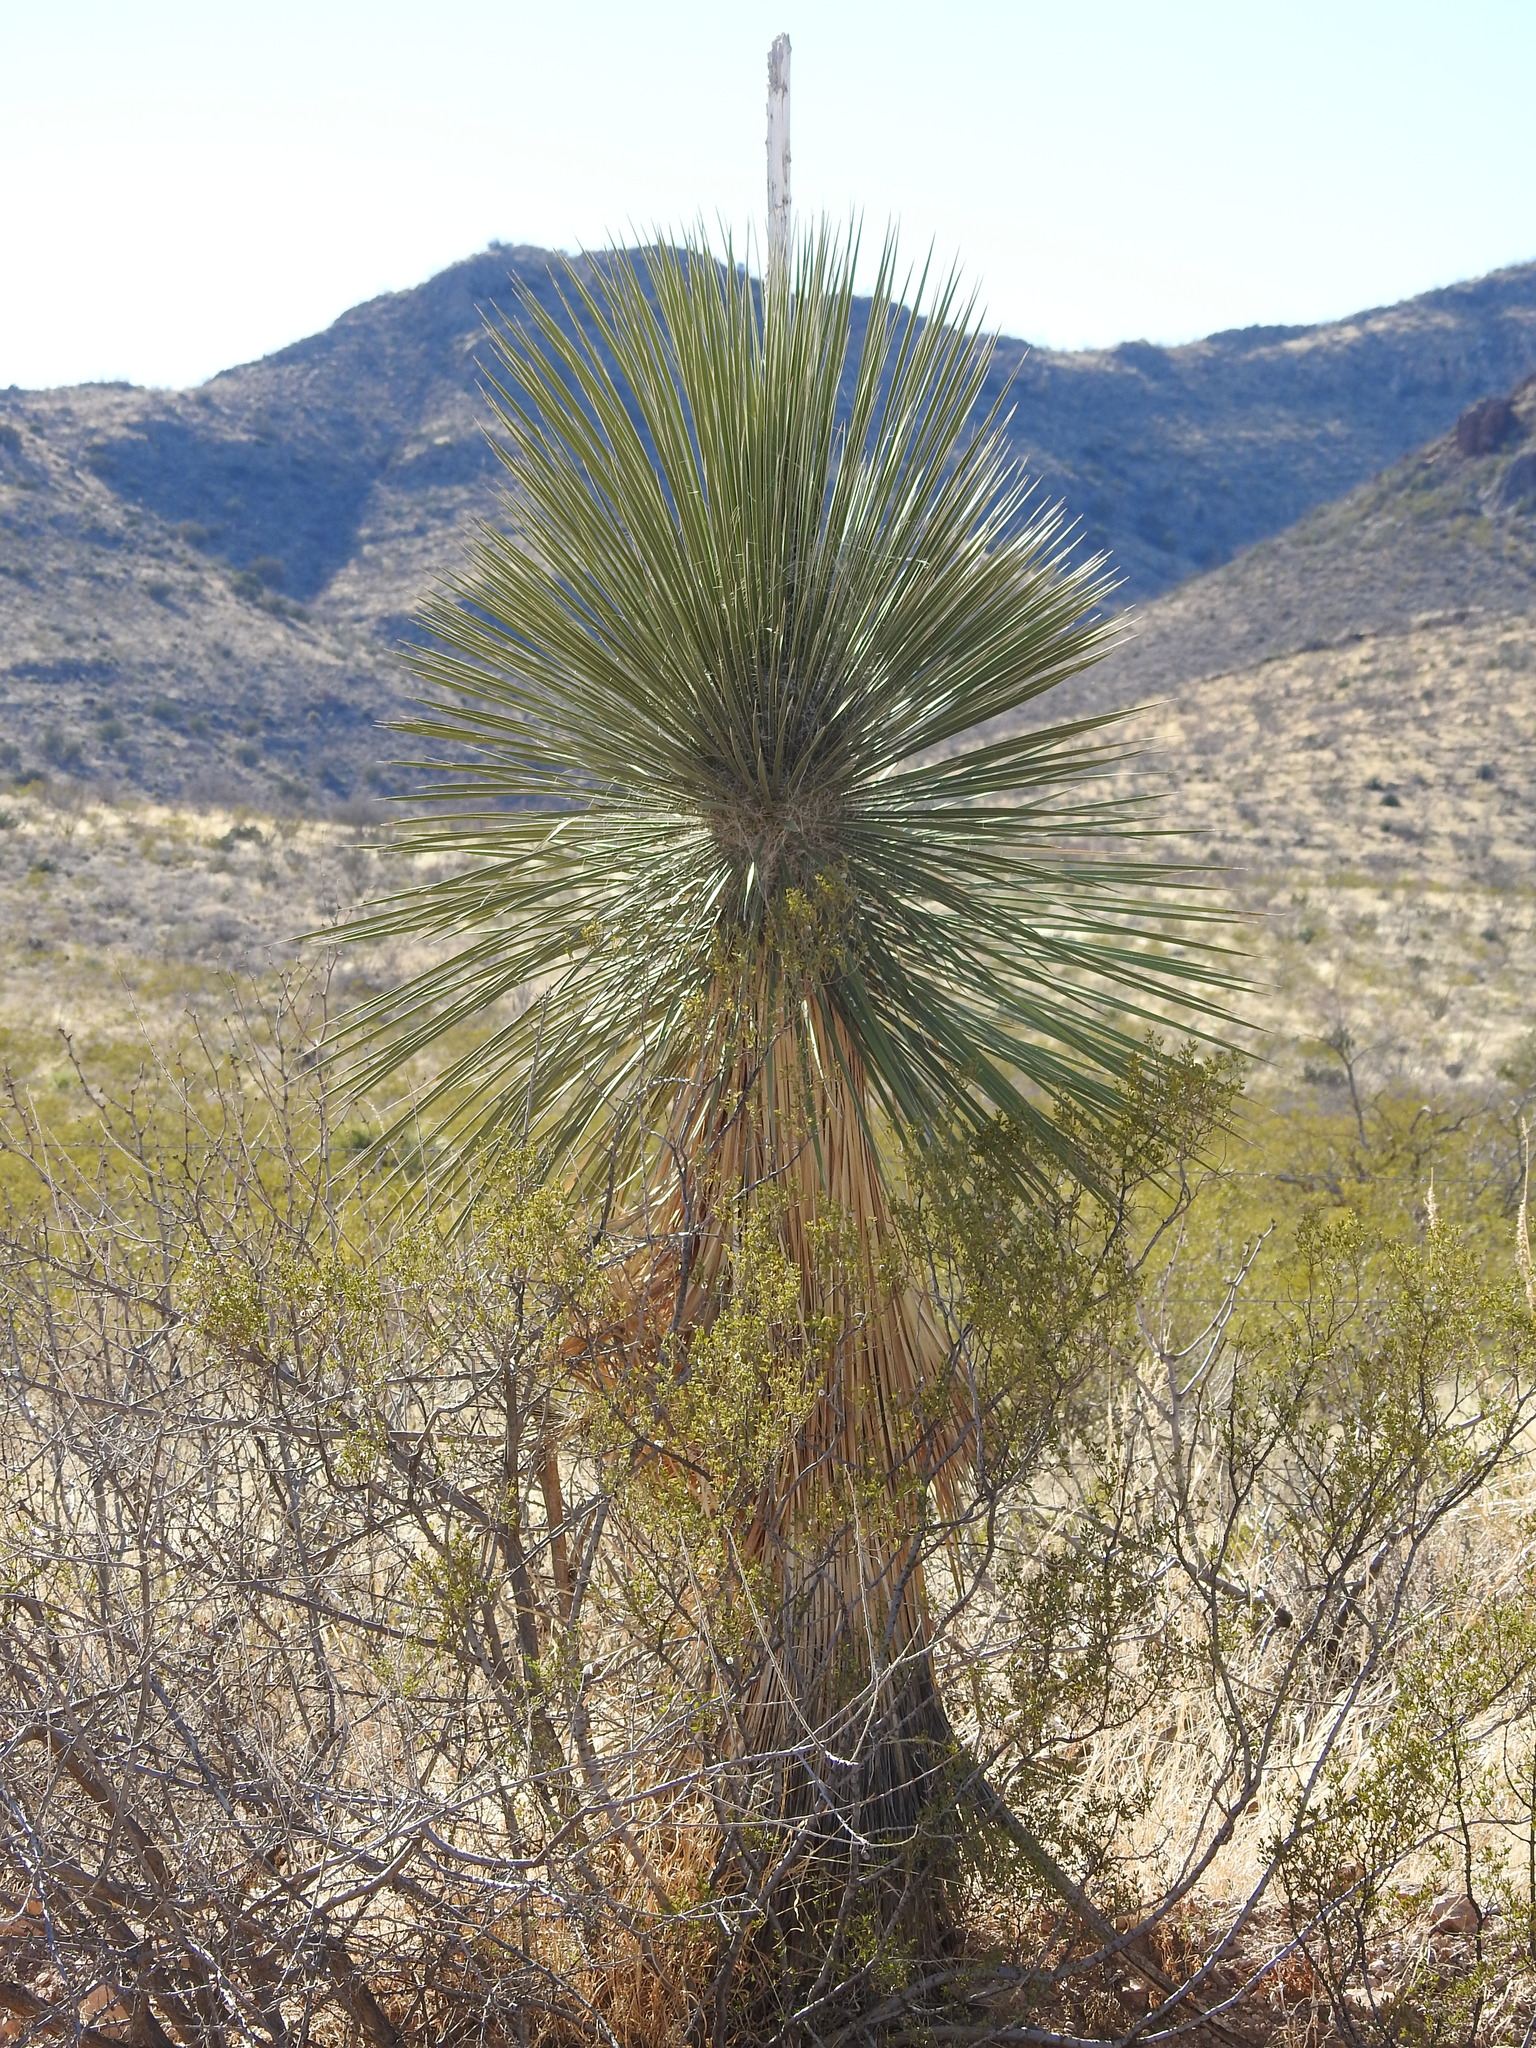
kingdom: Plantae
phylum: Tracheophyta
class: Liliopsida
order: Asparagales
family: Asparagaceae
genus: Yucca
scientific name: Yucca elata
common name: Palmella
